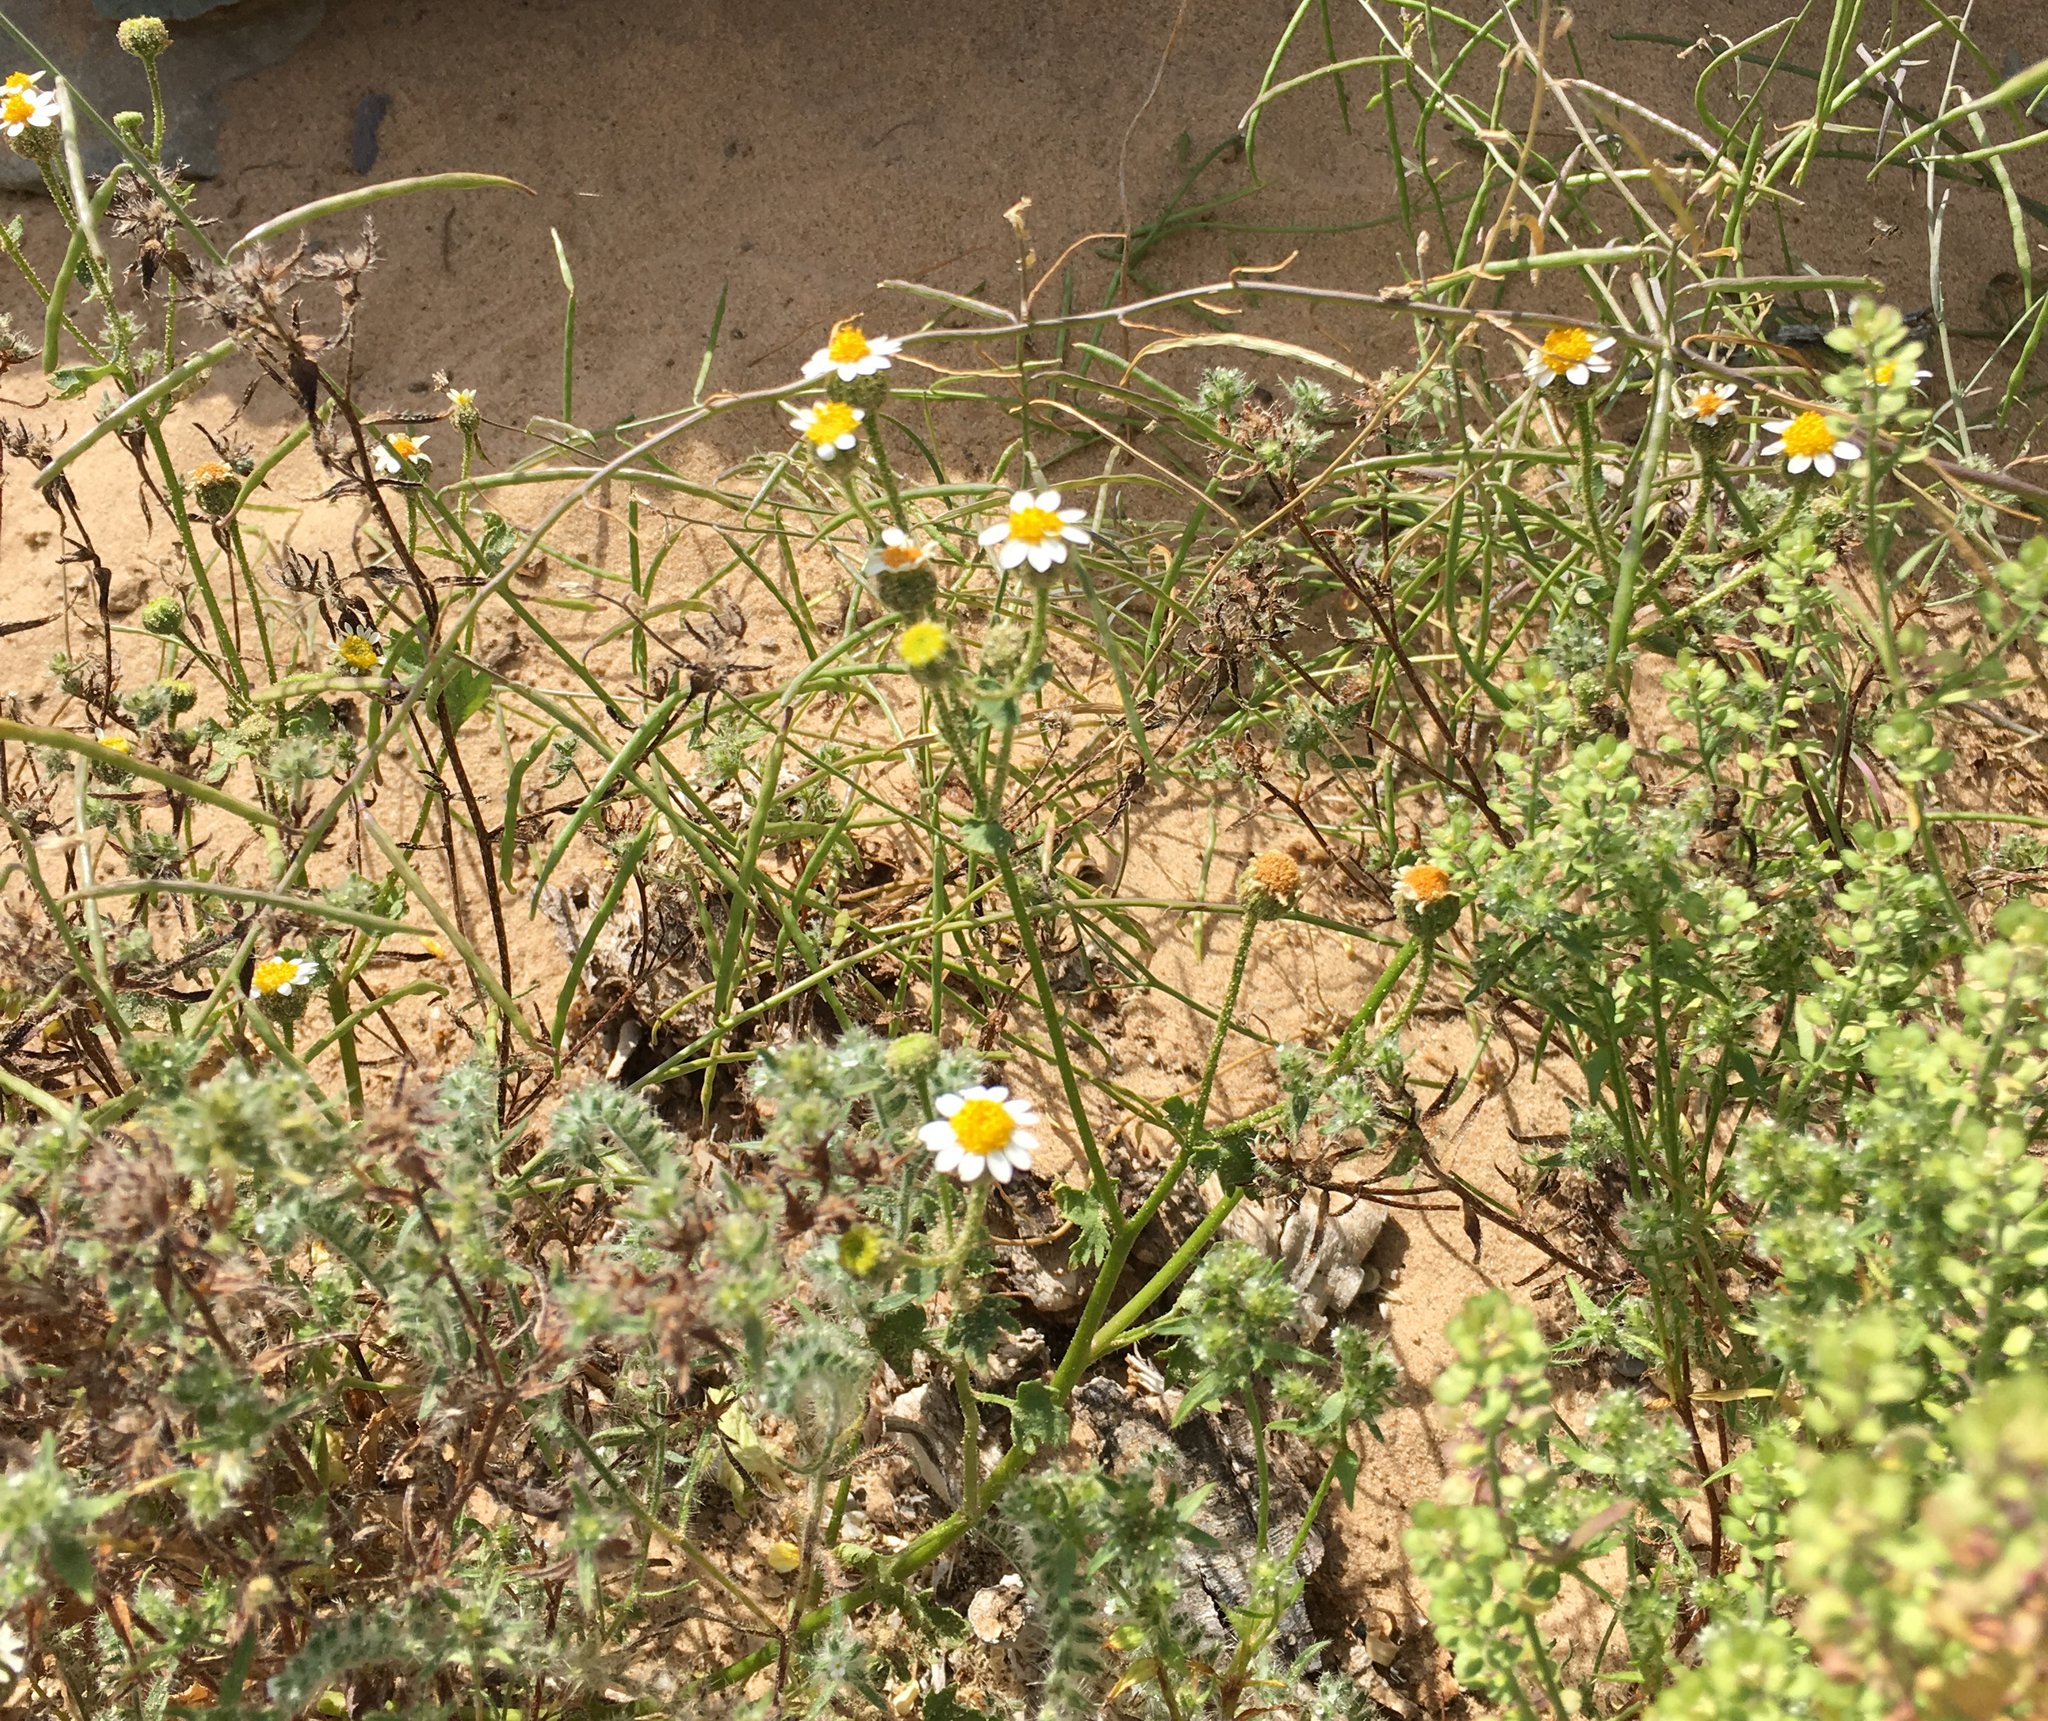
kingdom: Plantae
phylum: Tracheophyta
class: Magnoliopsida
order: Asterales
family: Asteraceae
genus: Laphamia
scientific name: Laphamia emoryi
